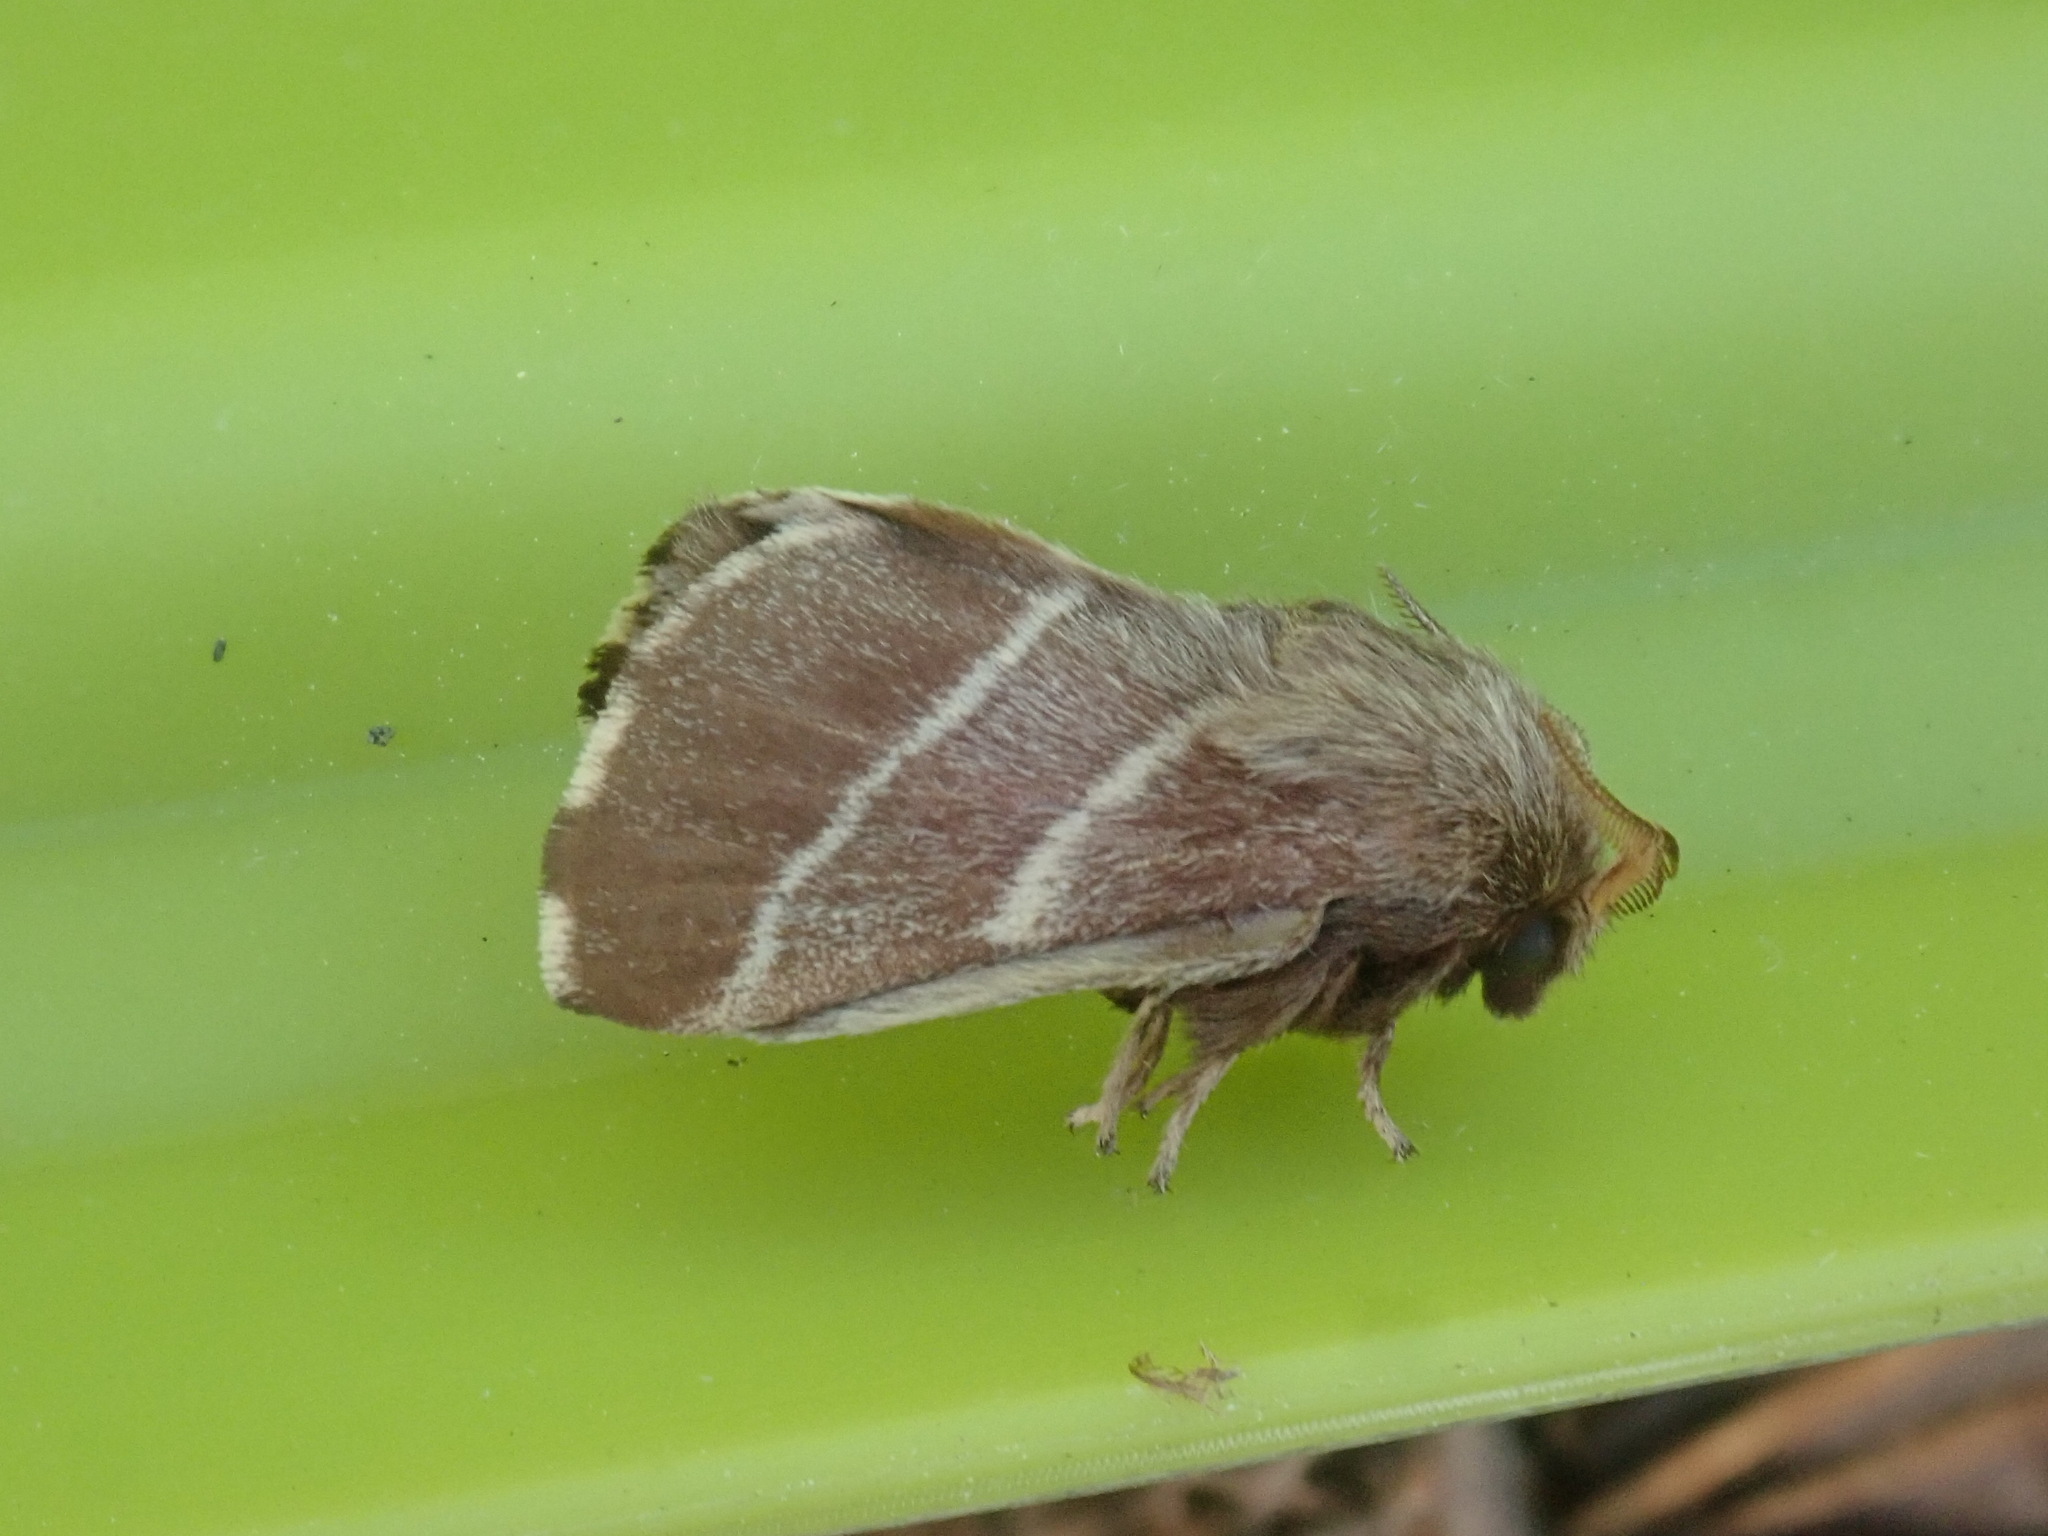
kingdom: Animalia
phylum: Arthropoda
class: Insecta
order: Lepidoptera
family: Lasiocampidae
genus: Malacosoma
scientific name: Malacosoma americana
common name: Eastern tent caterpillar moth
